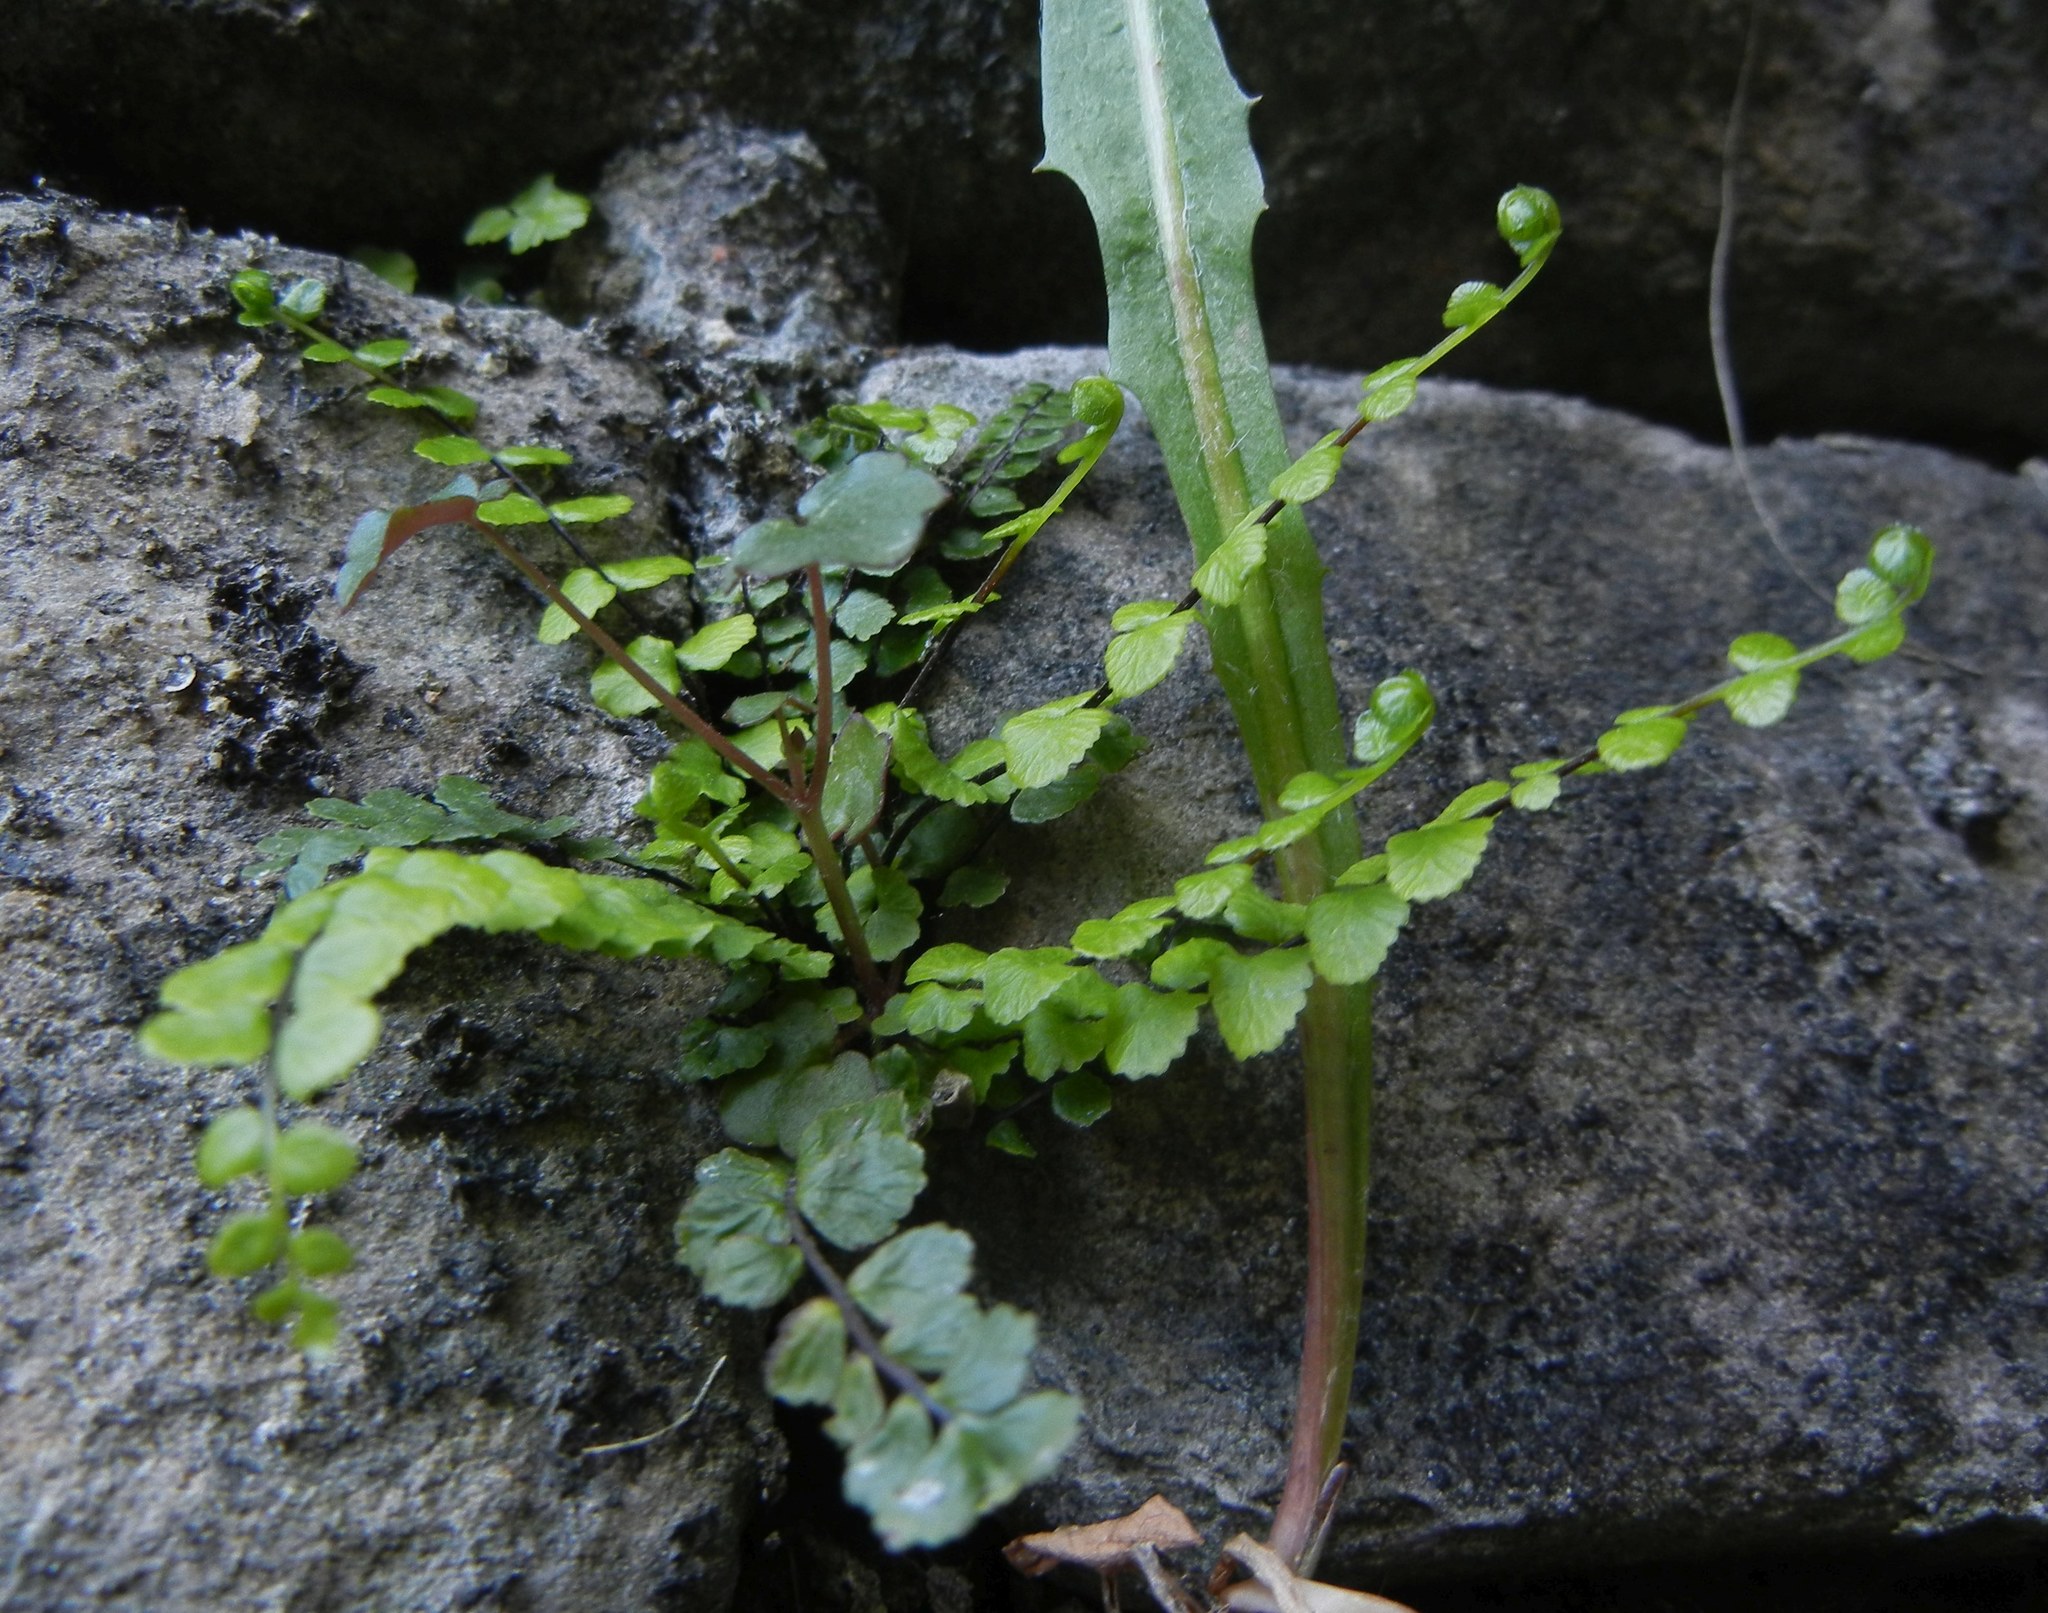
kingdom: Plantae
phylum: Tracheophyta
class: Polypodiopsida
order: Polypodiales
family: Aspleniaceae
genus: Asplenium
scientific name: Asplenium trichomanes
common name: Maidenhair spleenwort
